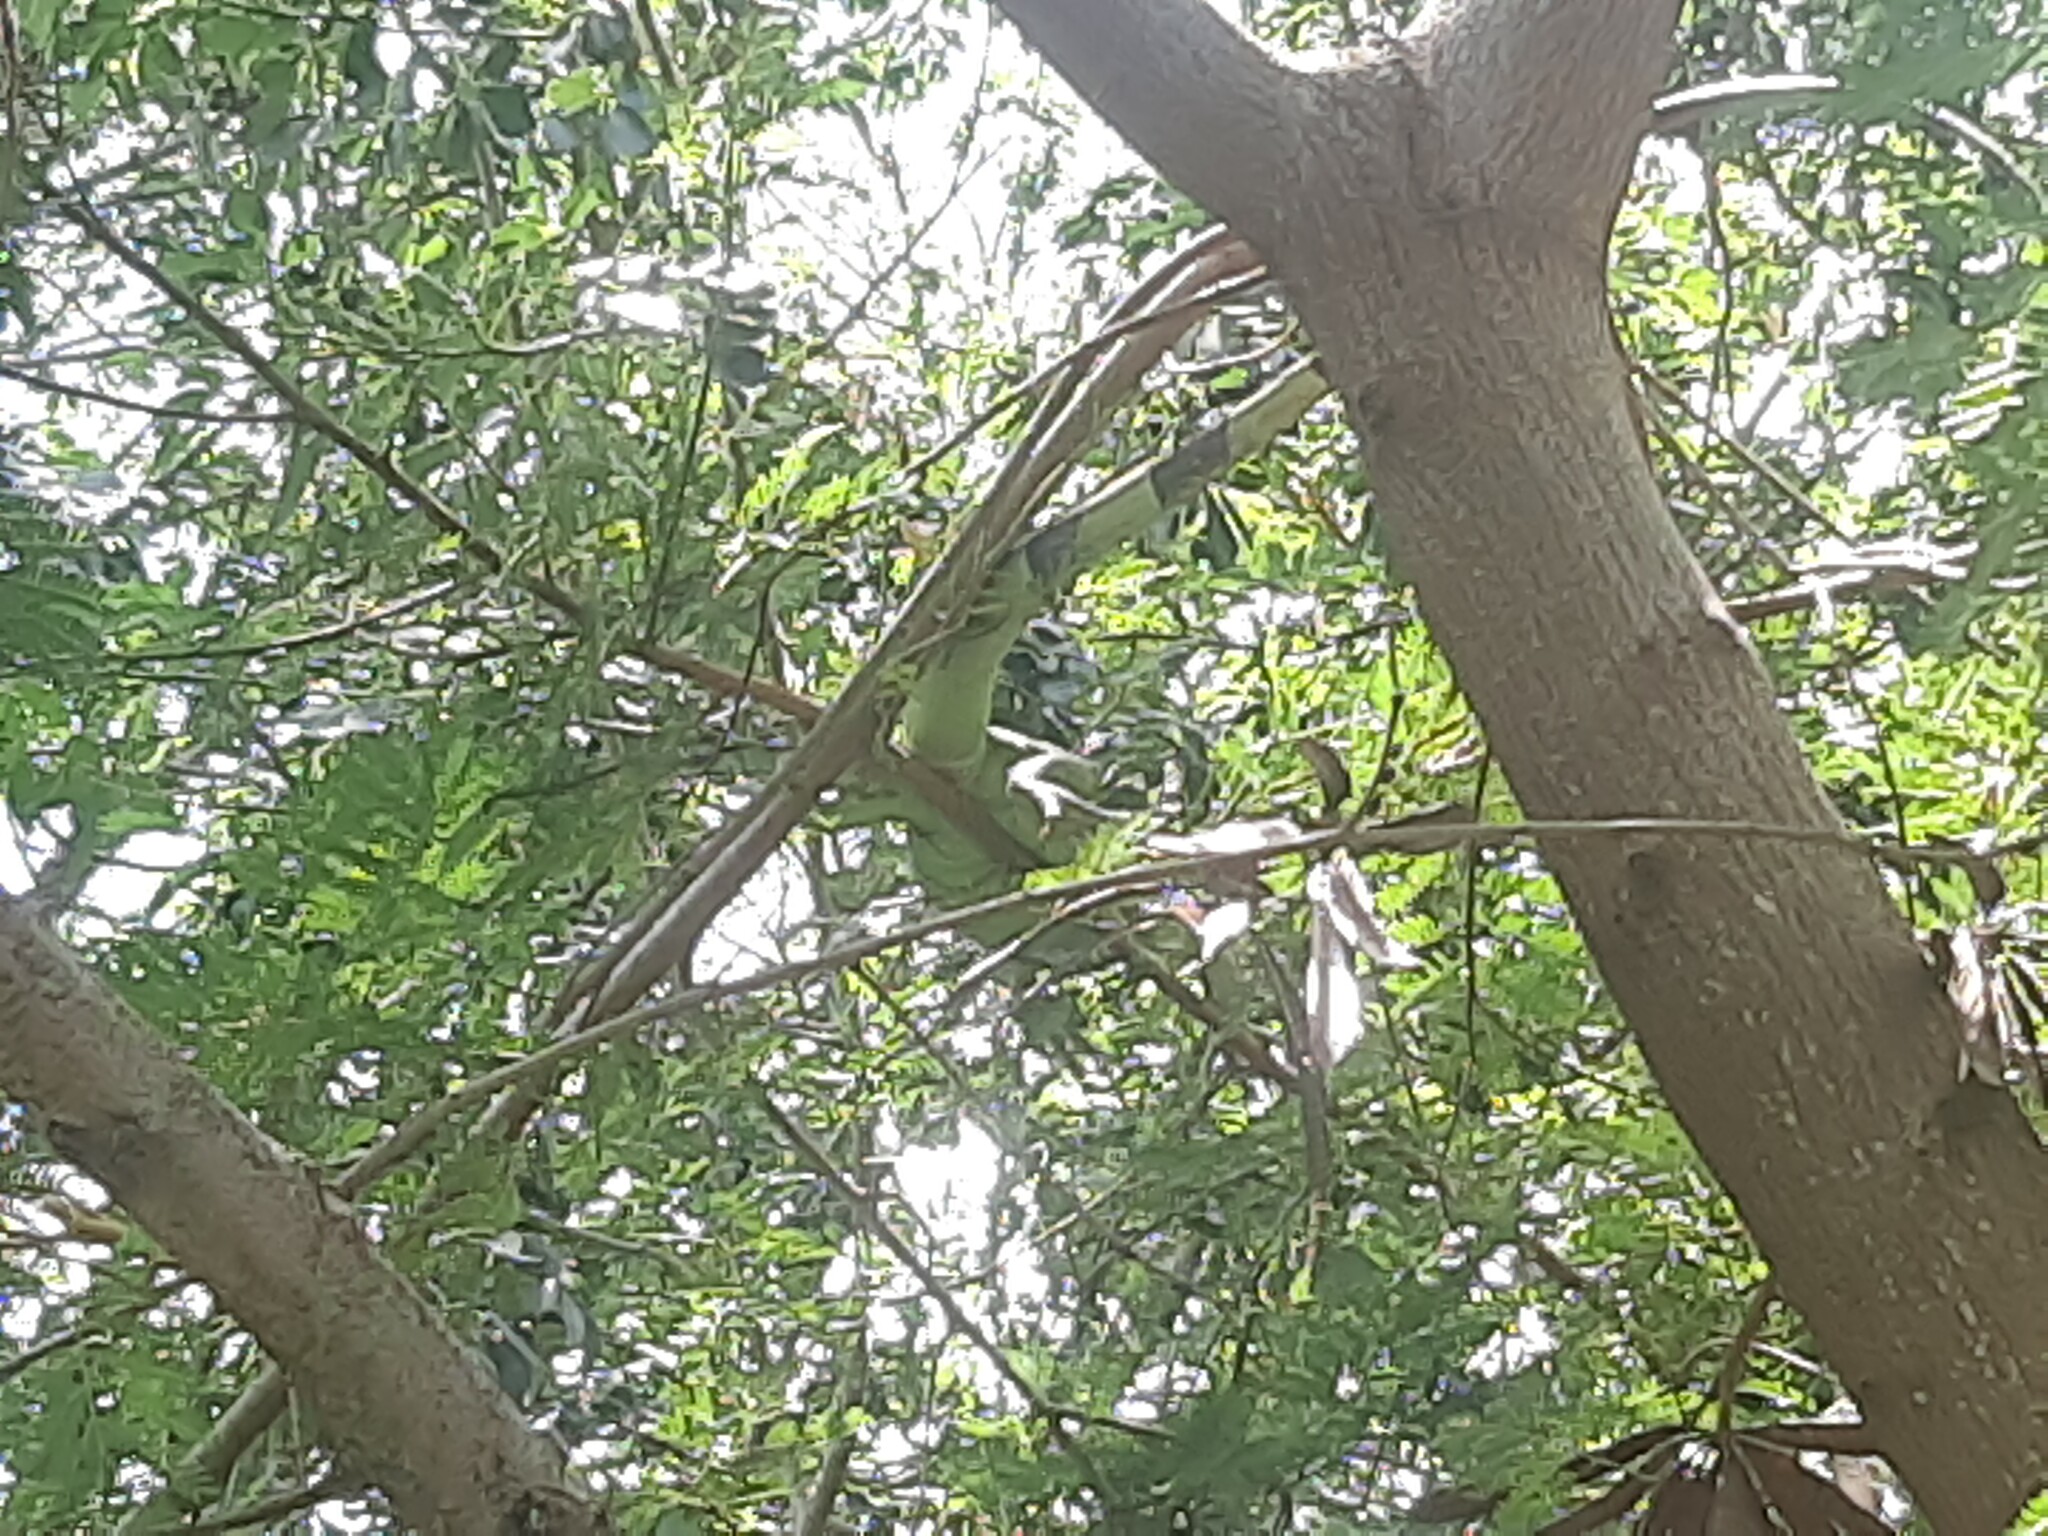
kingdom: Animalia
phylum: Chordata
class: Squamata
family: Iguanidae
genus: Iguana
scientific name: Iguana iguana
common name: Green iguana
